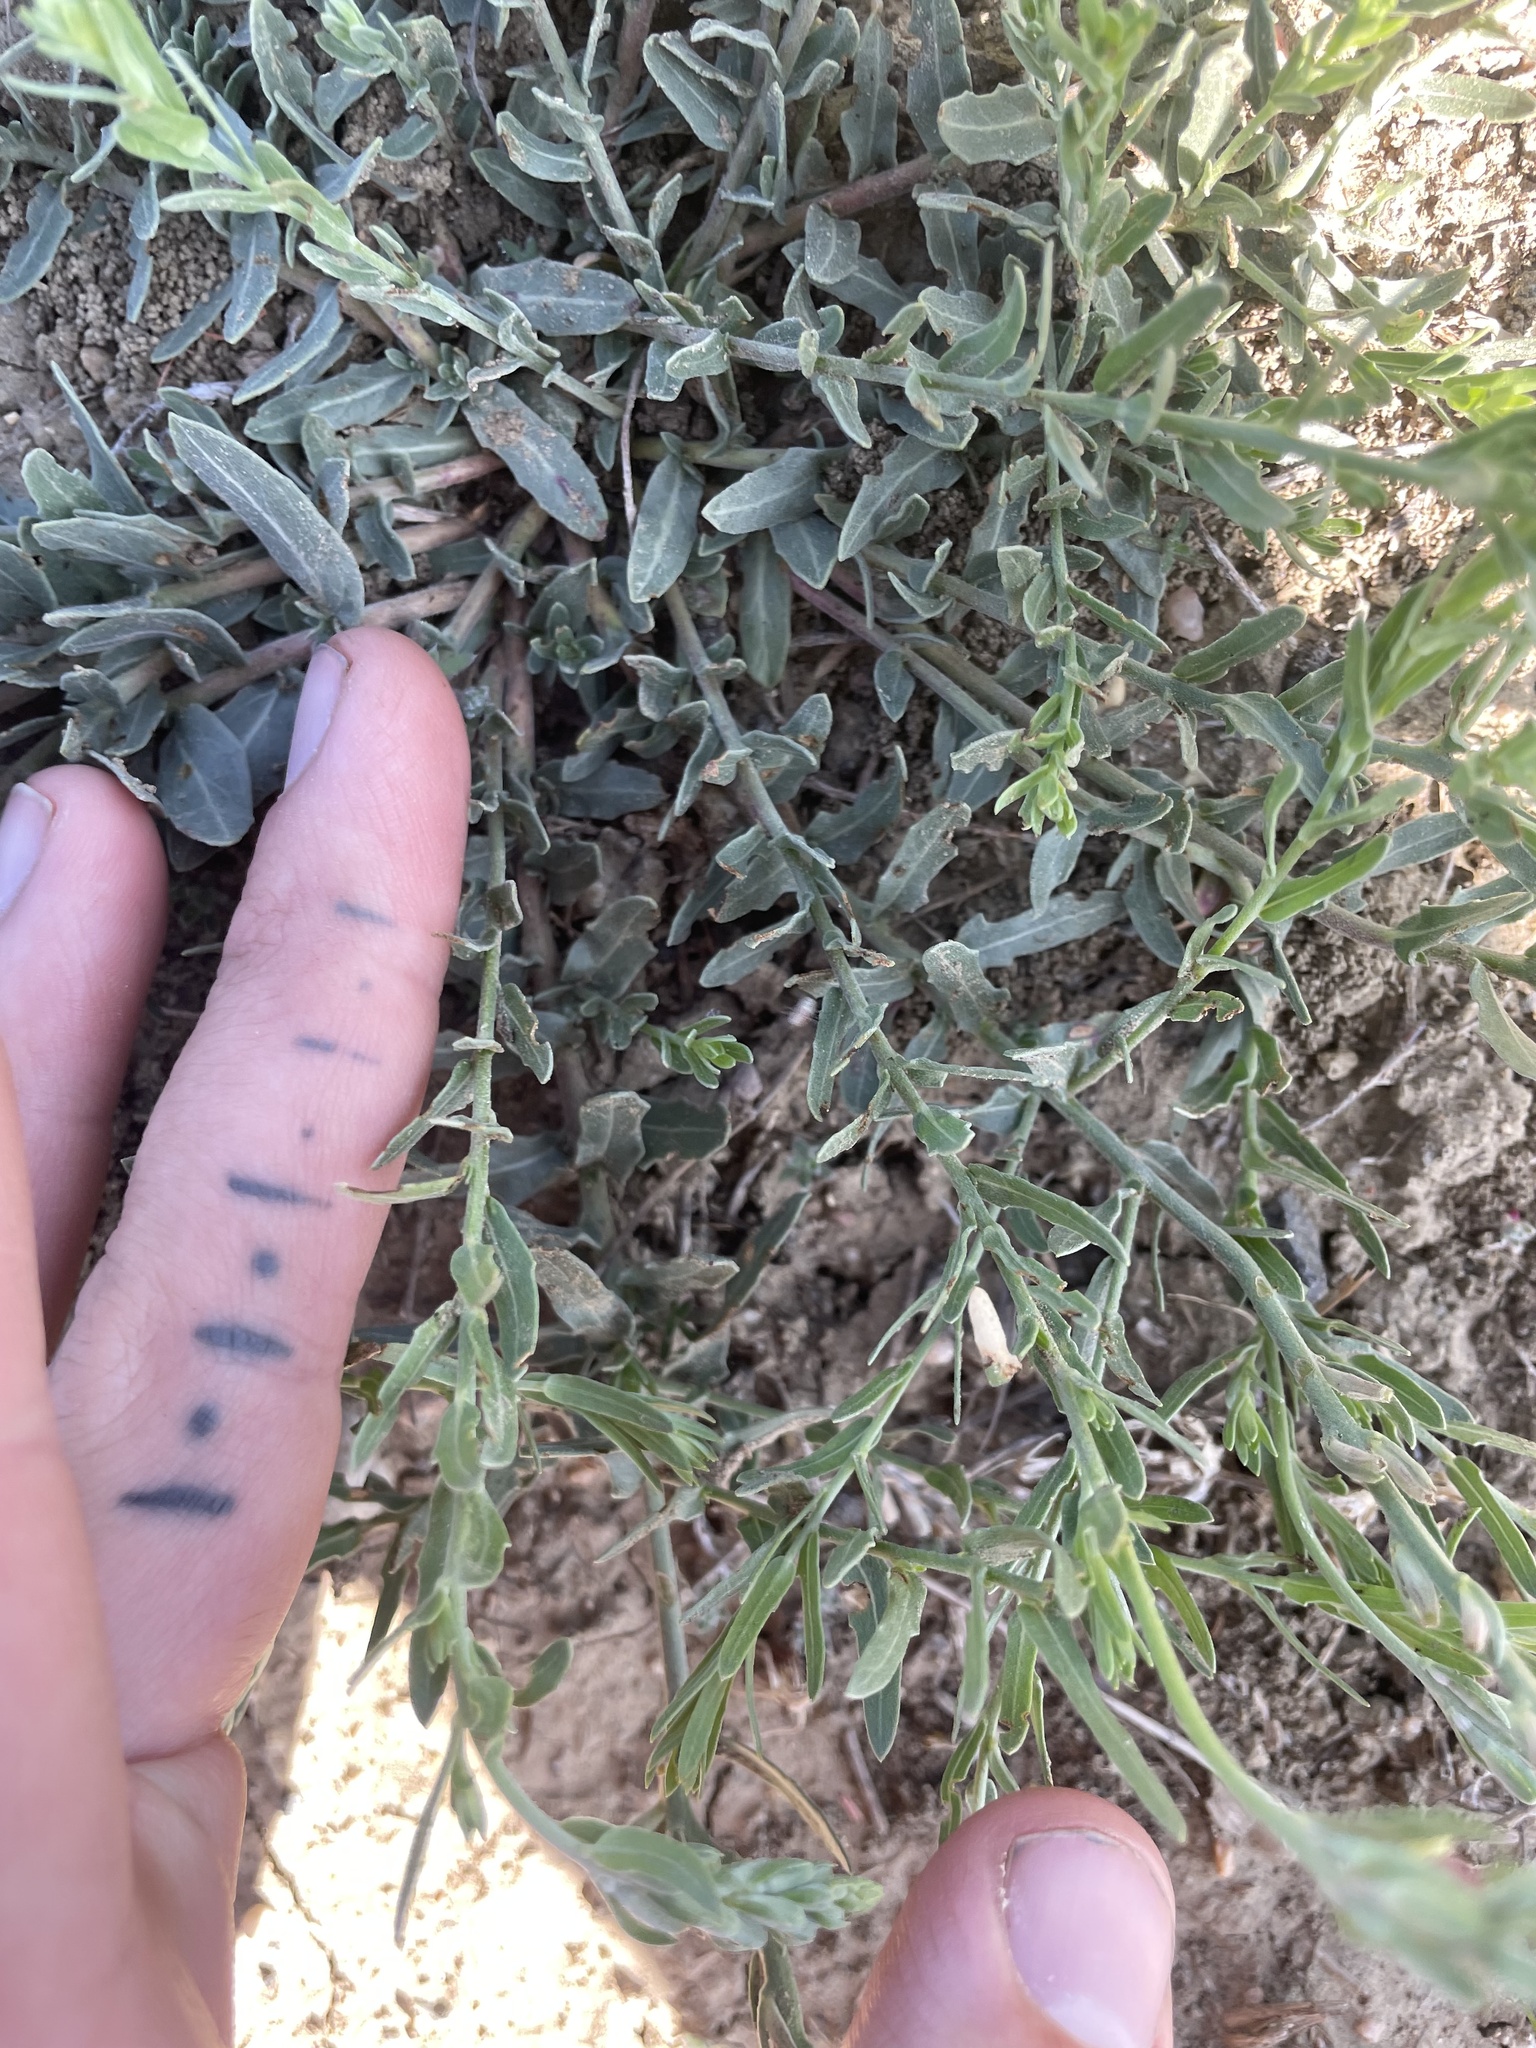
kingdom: Plantae
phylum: Tracheophyta
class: Magnoliopsida
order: Myrtales
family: Onagraceae
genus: Oenothera
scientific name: Oenothera suffrutescens
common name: Scarlet beeblossom
